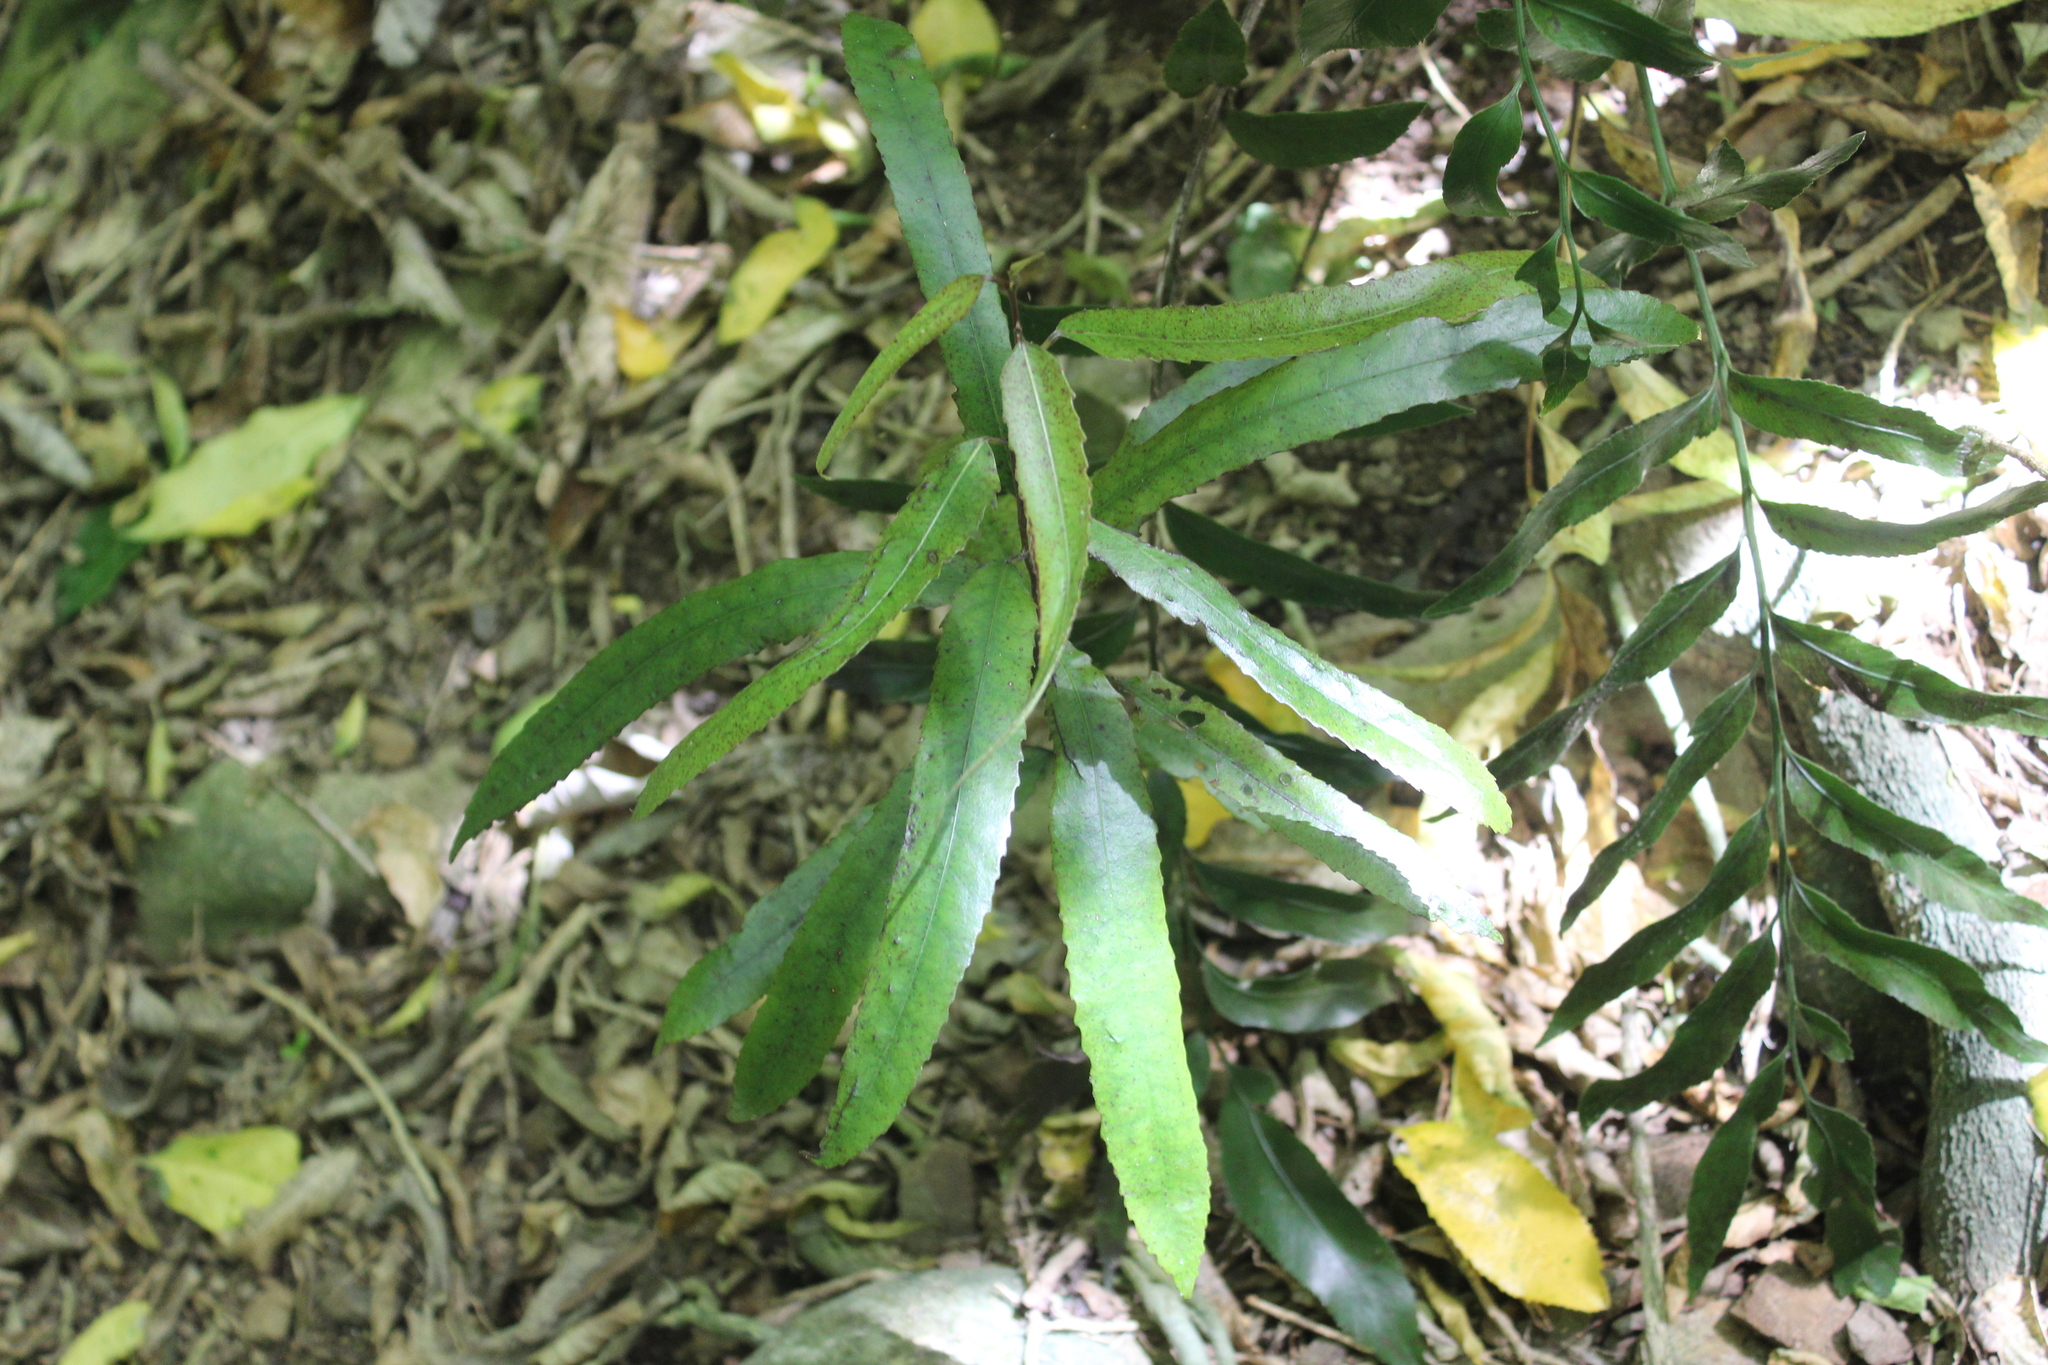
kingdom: Plantae
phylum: Tracheophyta
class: Magnoliopsida
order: Oxalidales
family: Elaeocarpaceae
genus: Elaeocarpus
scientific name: Elaeocarpus dentatus
